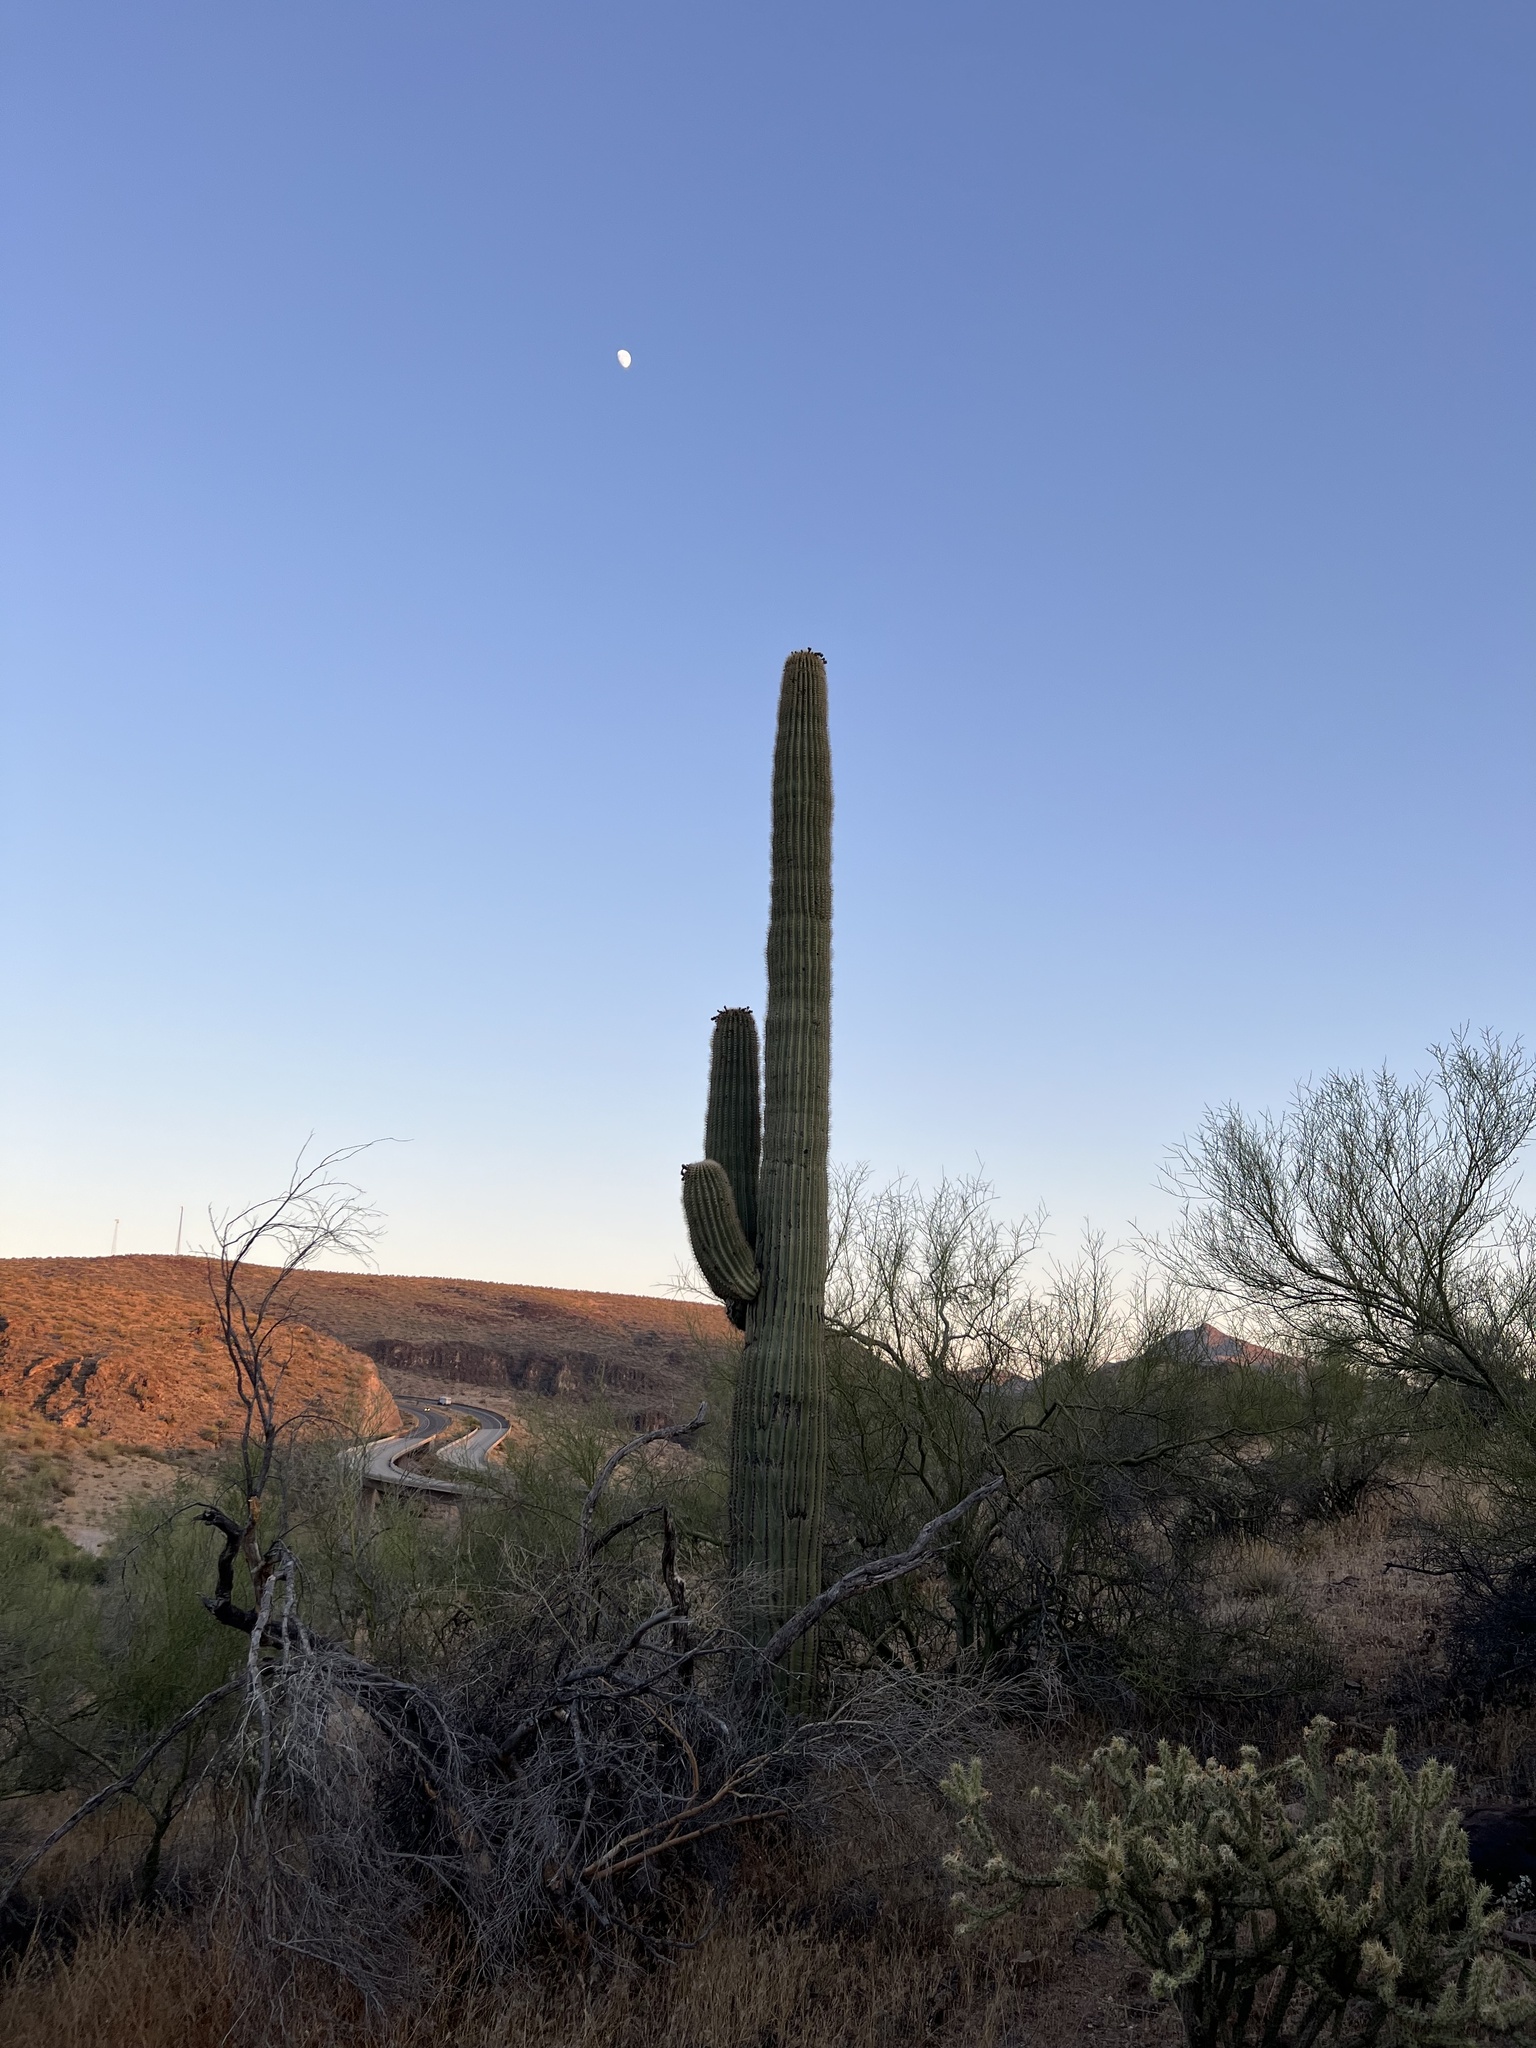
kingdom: Plantae
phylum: Tracheophyta
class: Magnoliopsida
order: Caryophyllales
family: Cactaceae
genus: Carnegiea
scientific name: Carnegiea gigantea
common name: Saguaro
